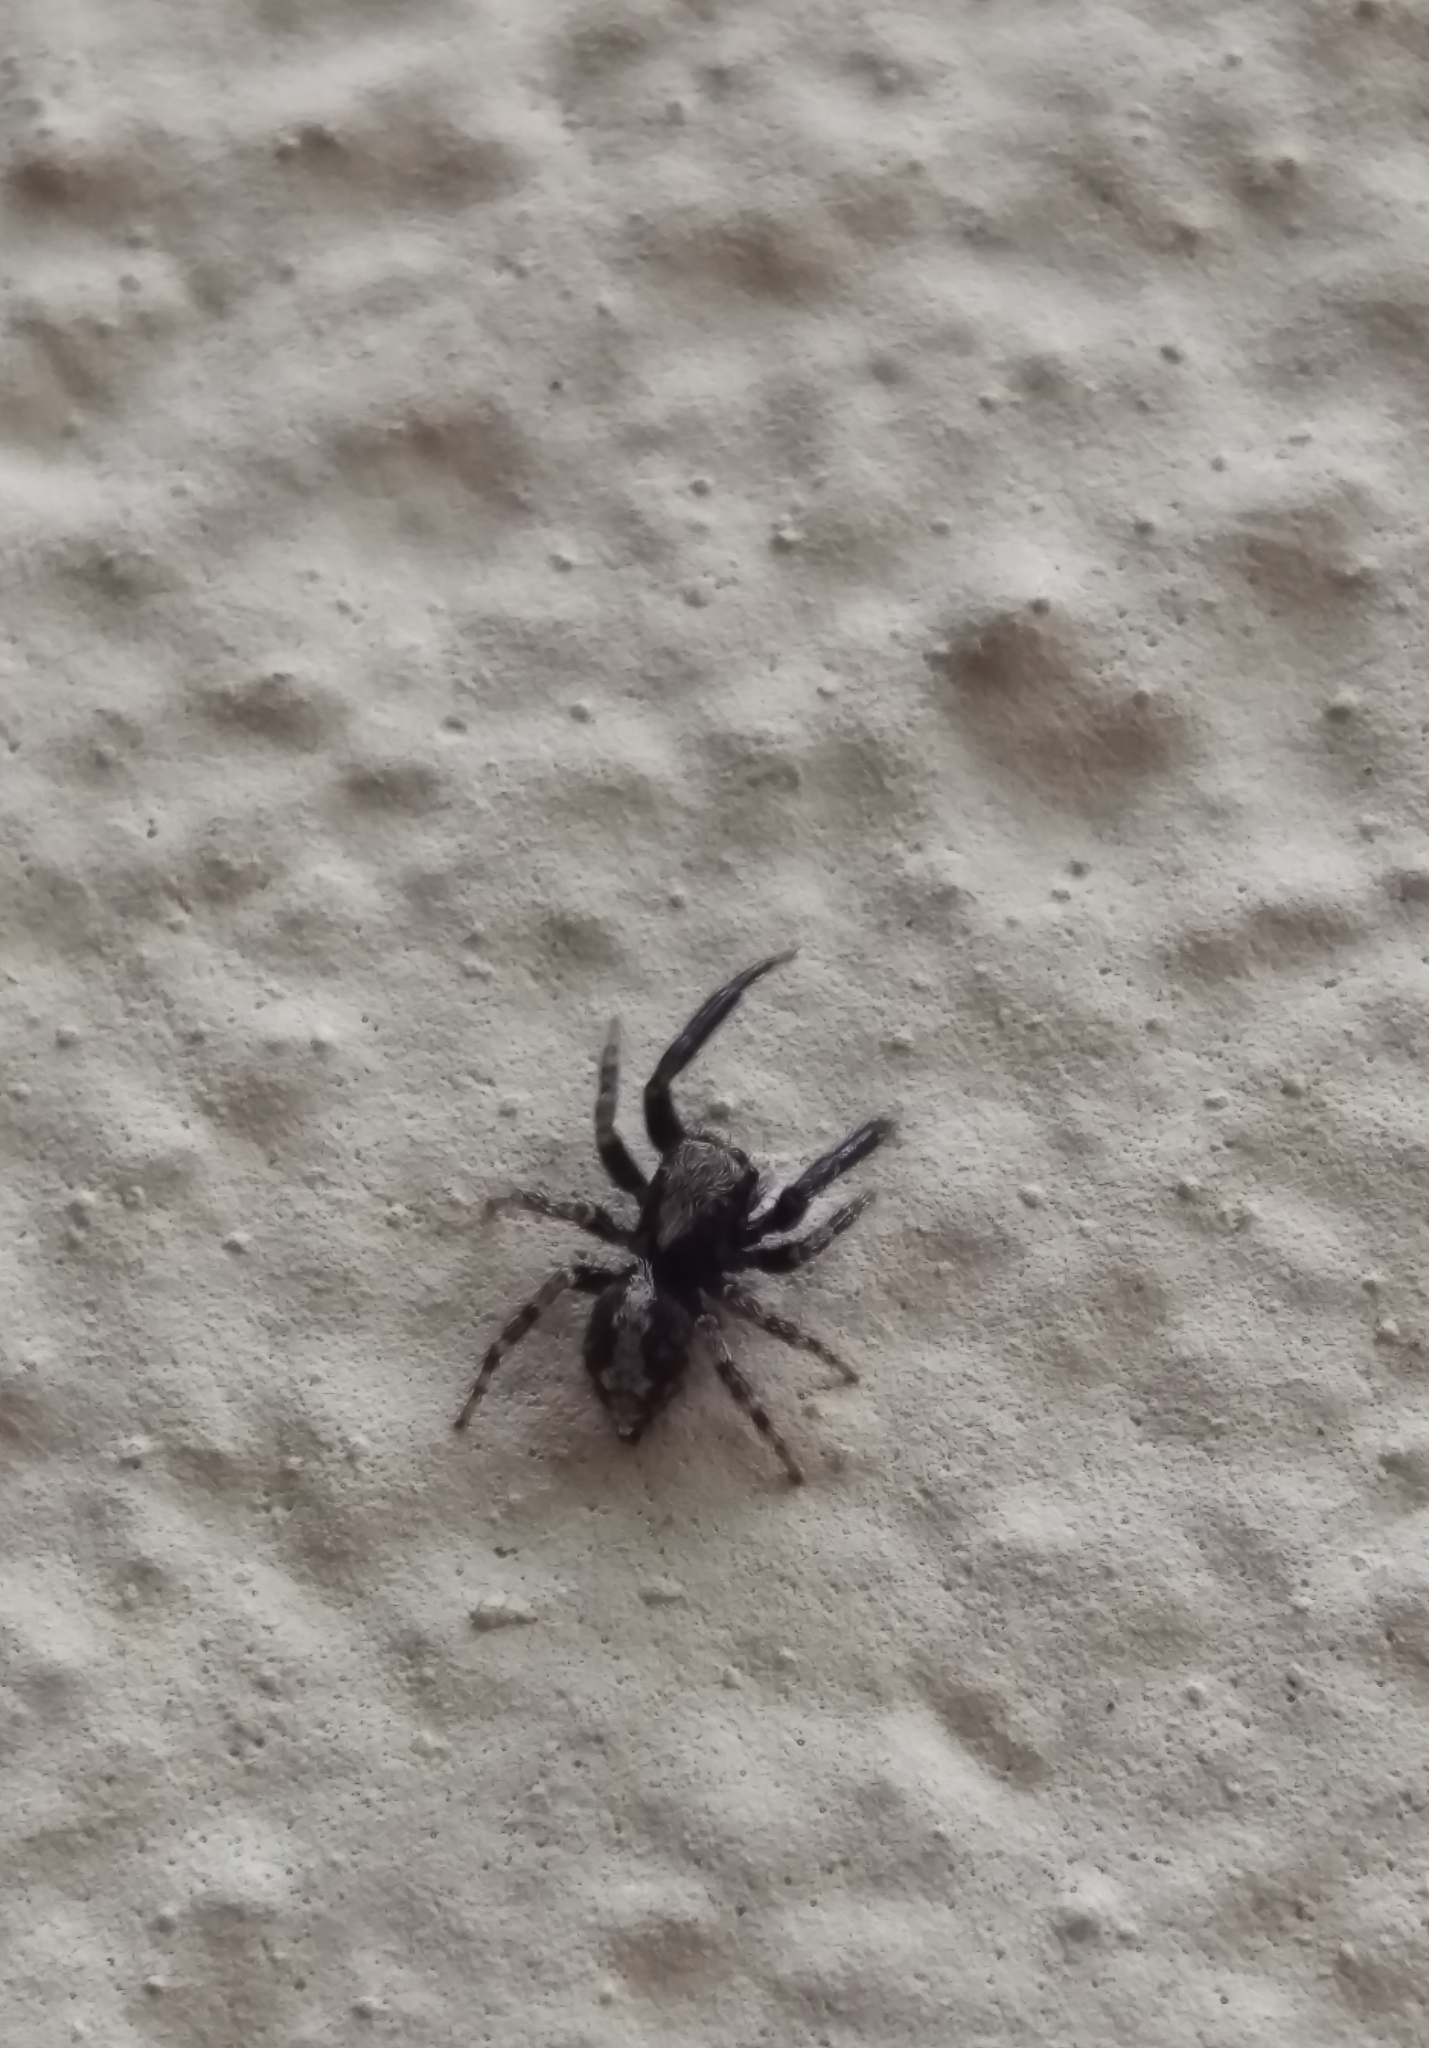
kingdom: Animalia
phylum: Arthropoda
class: Arachnida
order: Araneae
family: Salticidae
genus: Pseudeuophrys
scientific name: Pseudeuophrys lanigera
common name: Jumping spider
